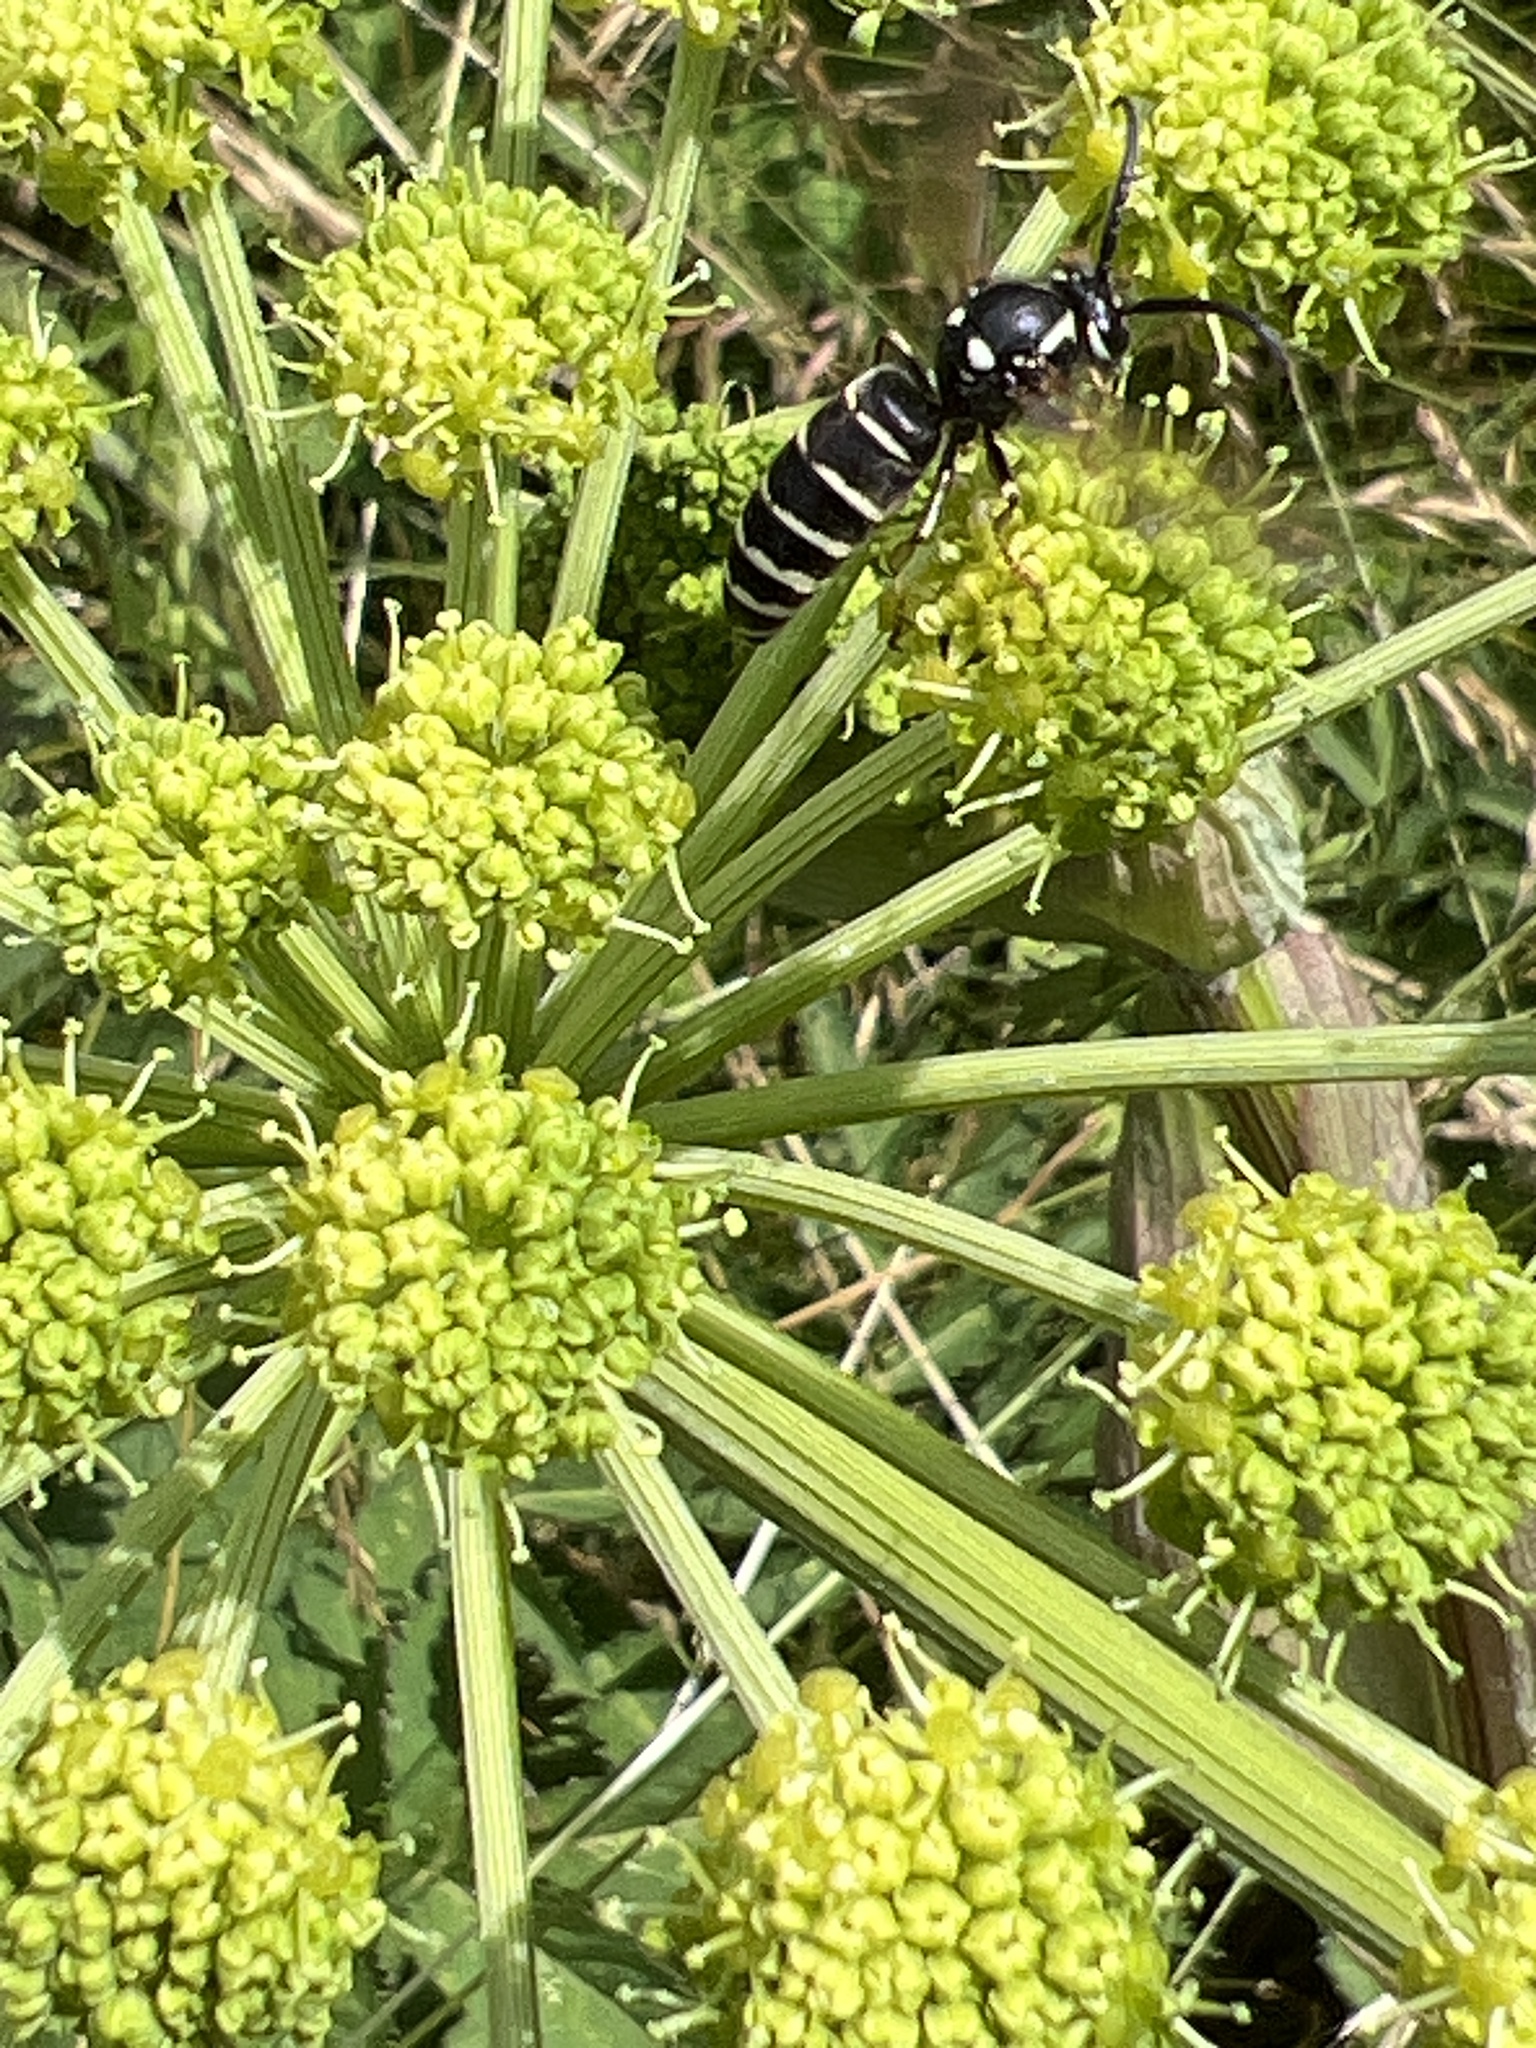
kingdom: Animalia
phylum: Arthropoda
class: Insecta
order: Hymenoptera
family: Vespidae
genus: Dolichovespula
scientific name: Dolichovespula adulterina
